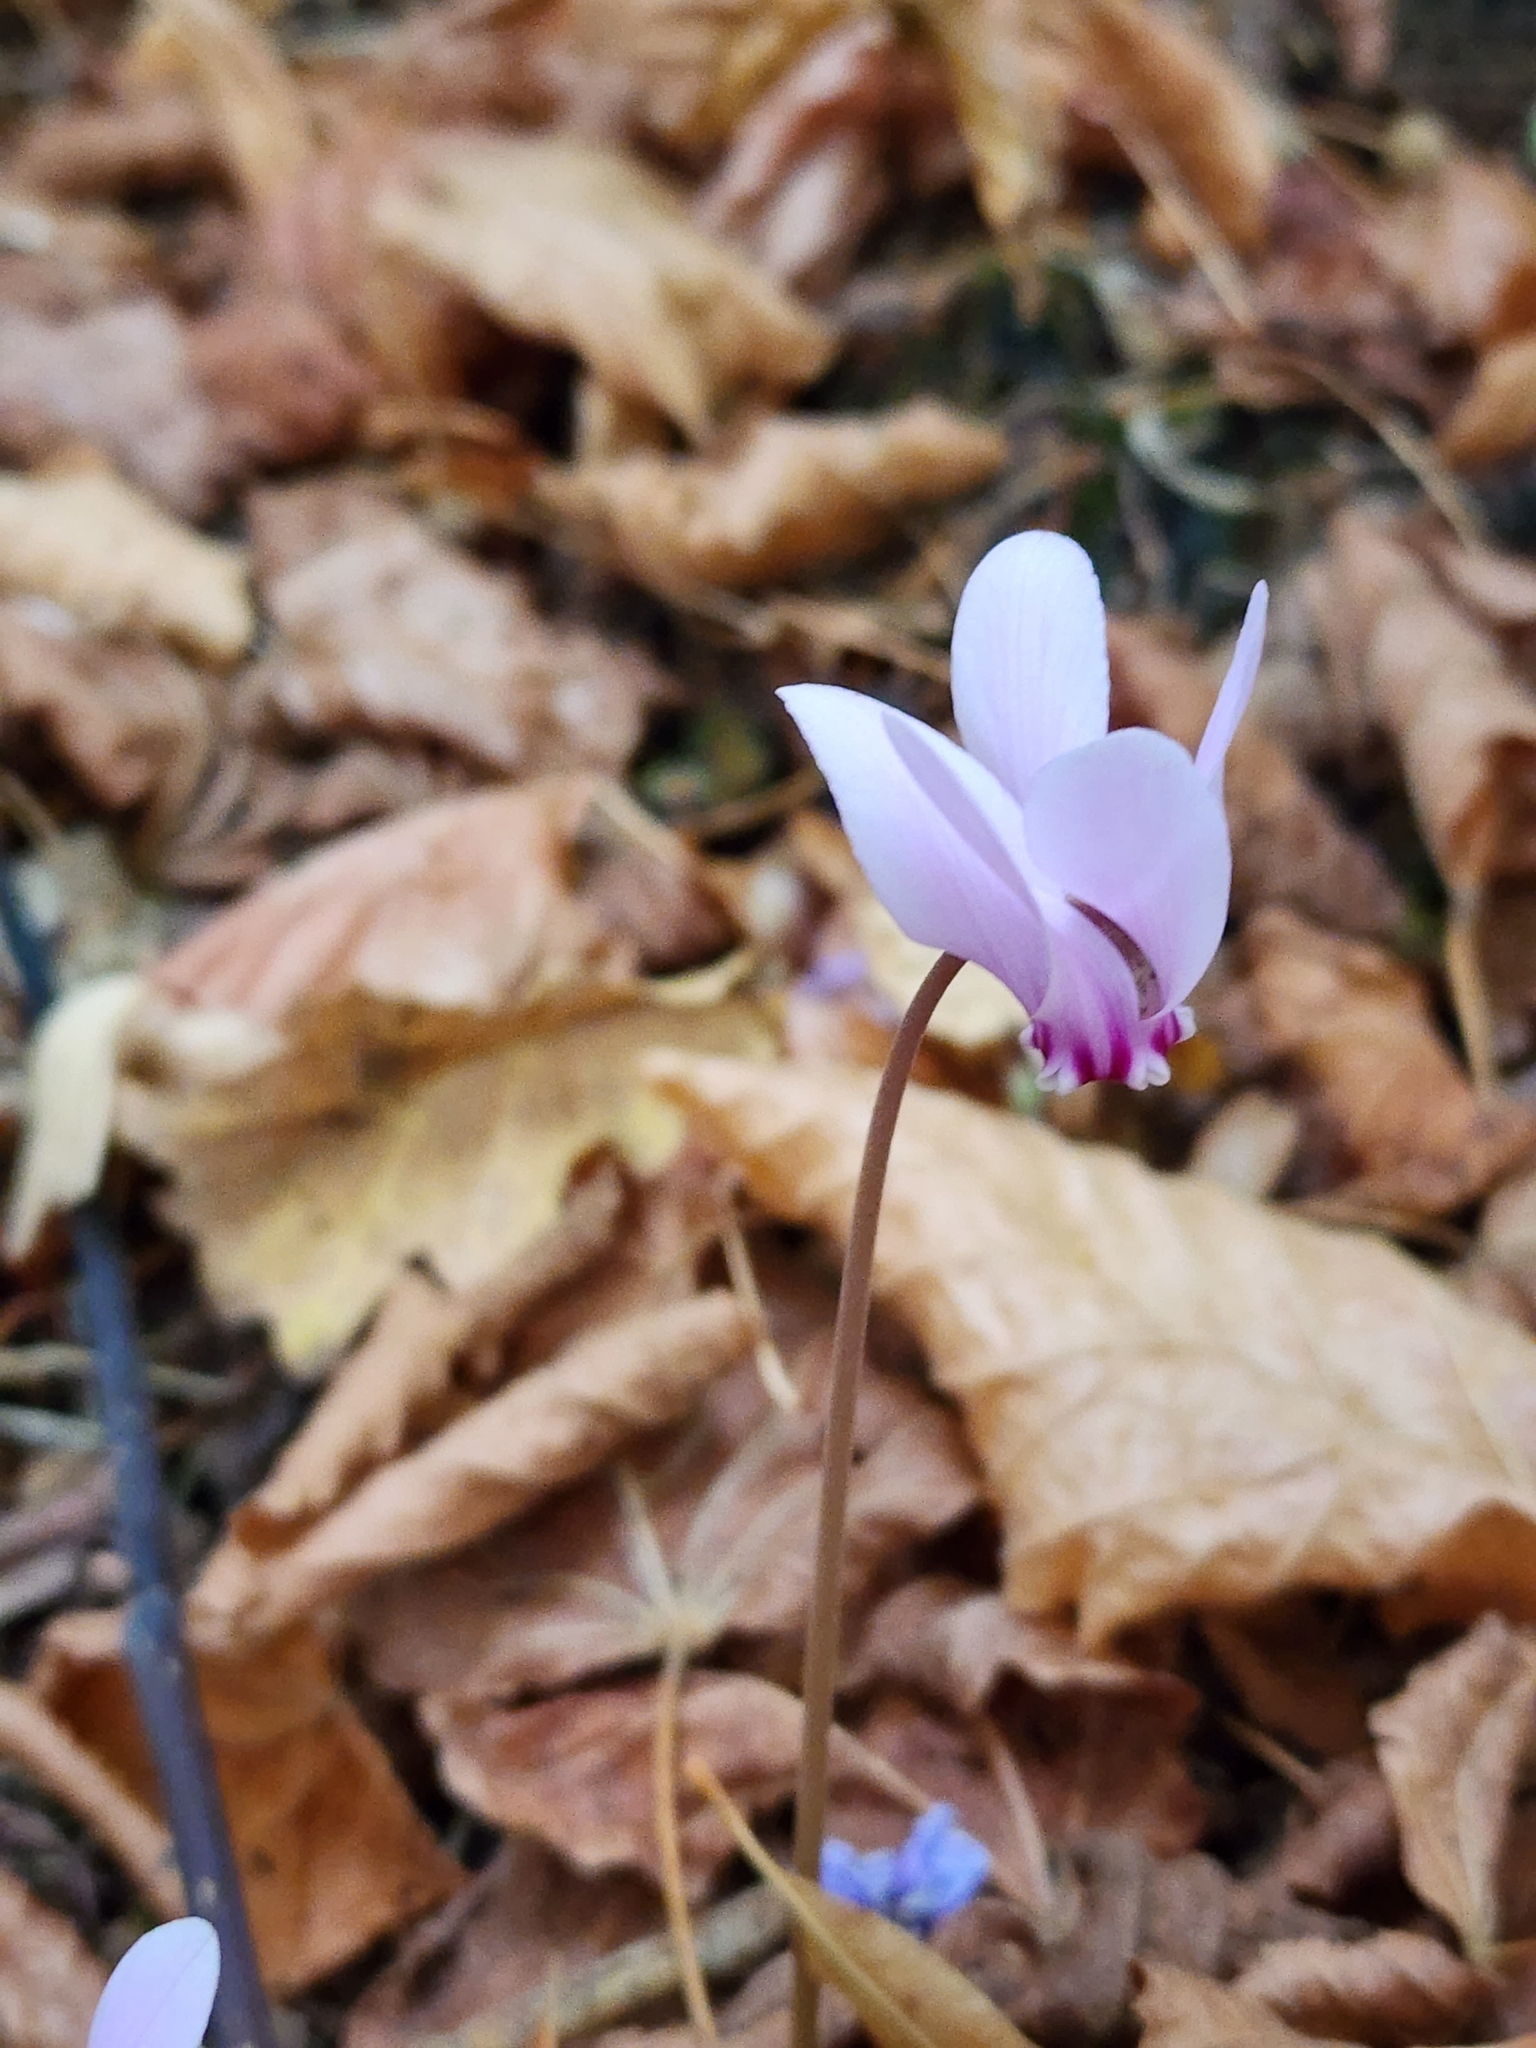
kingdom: Plantae
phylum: Tracheophyta
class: Magnoliopsida
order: Ericales
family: Primulaceae
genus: Cyclamen
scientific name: Cyclamen hederifolium
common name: Sowbread
